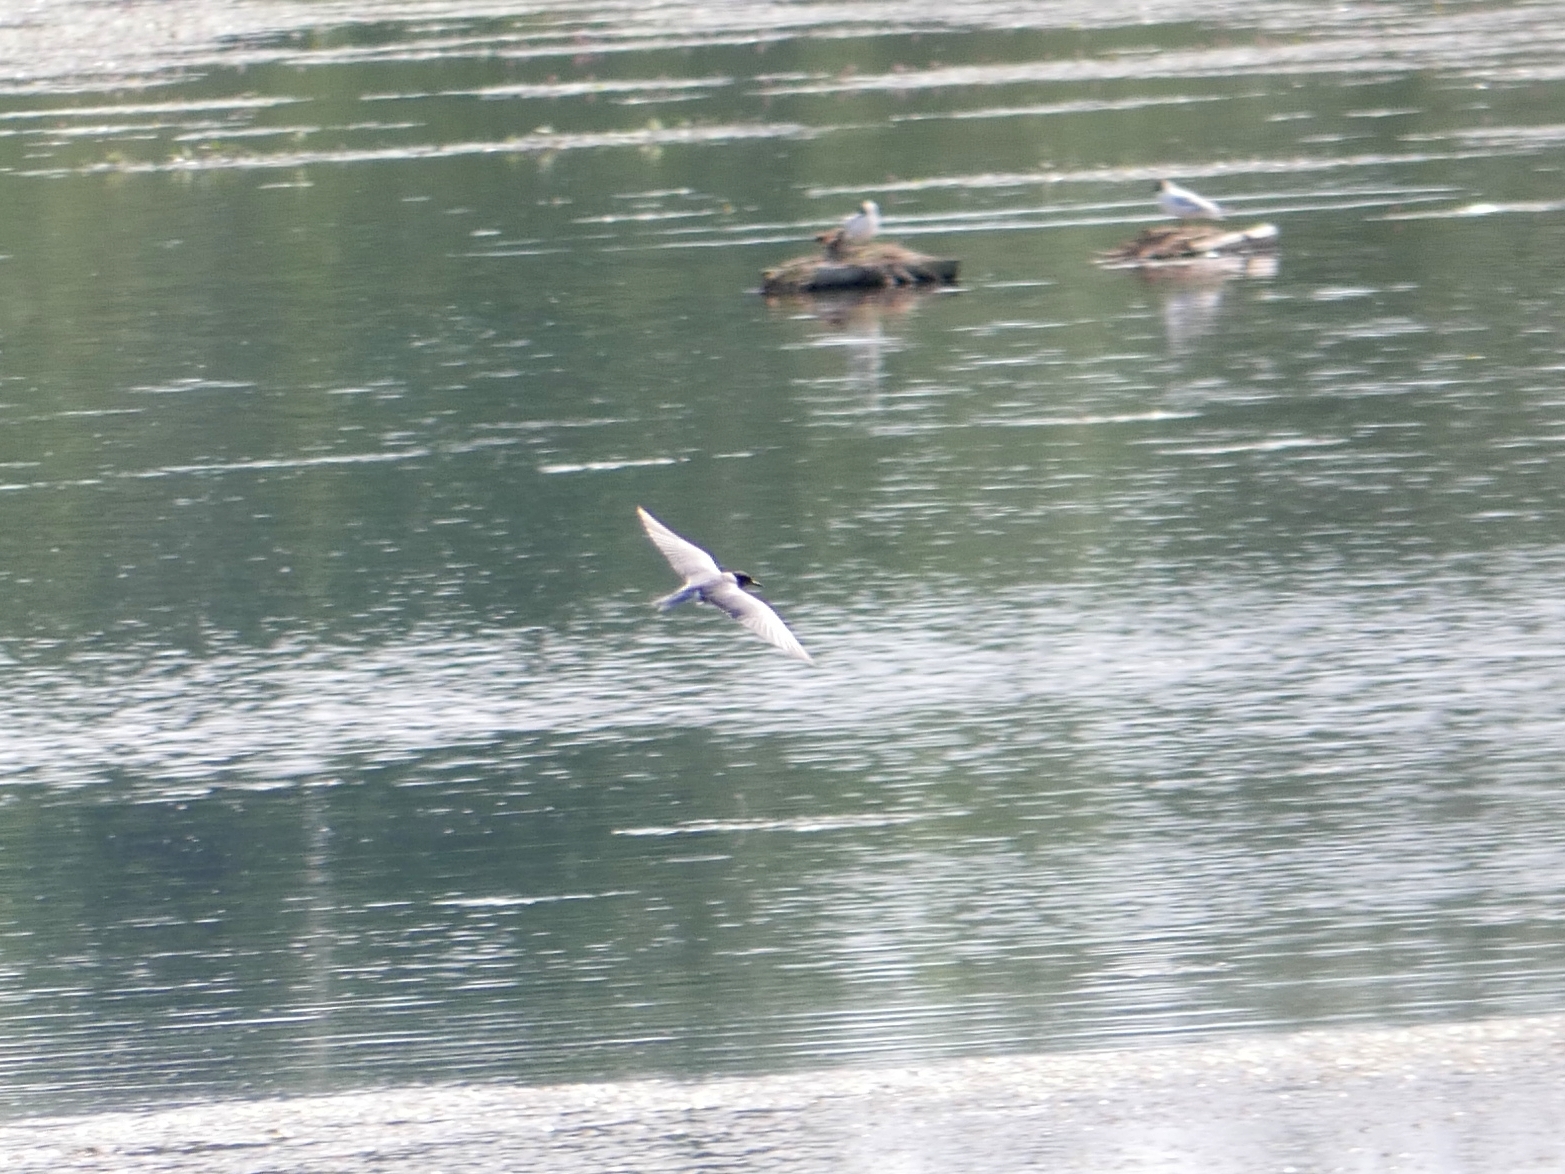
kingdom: Animalia
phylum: Chordata
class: Aves
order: Charadriiformes
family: Laridae
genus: Chlidonias
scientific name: Chlidonias niger
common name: Black tern
